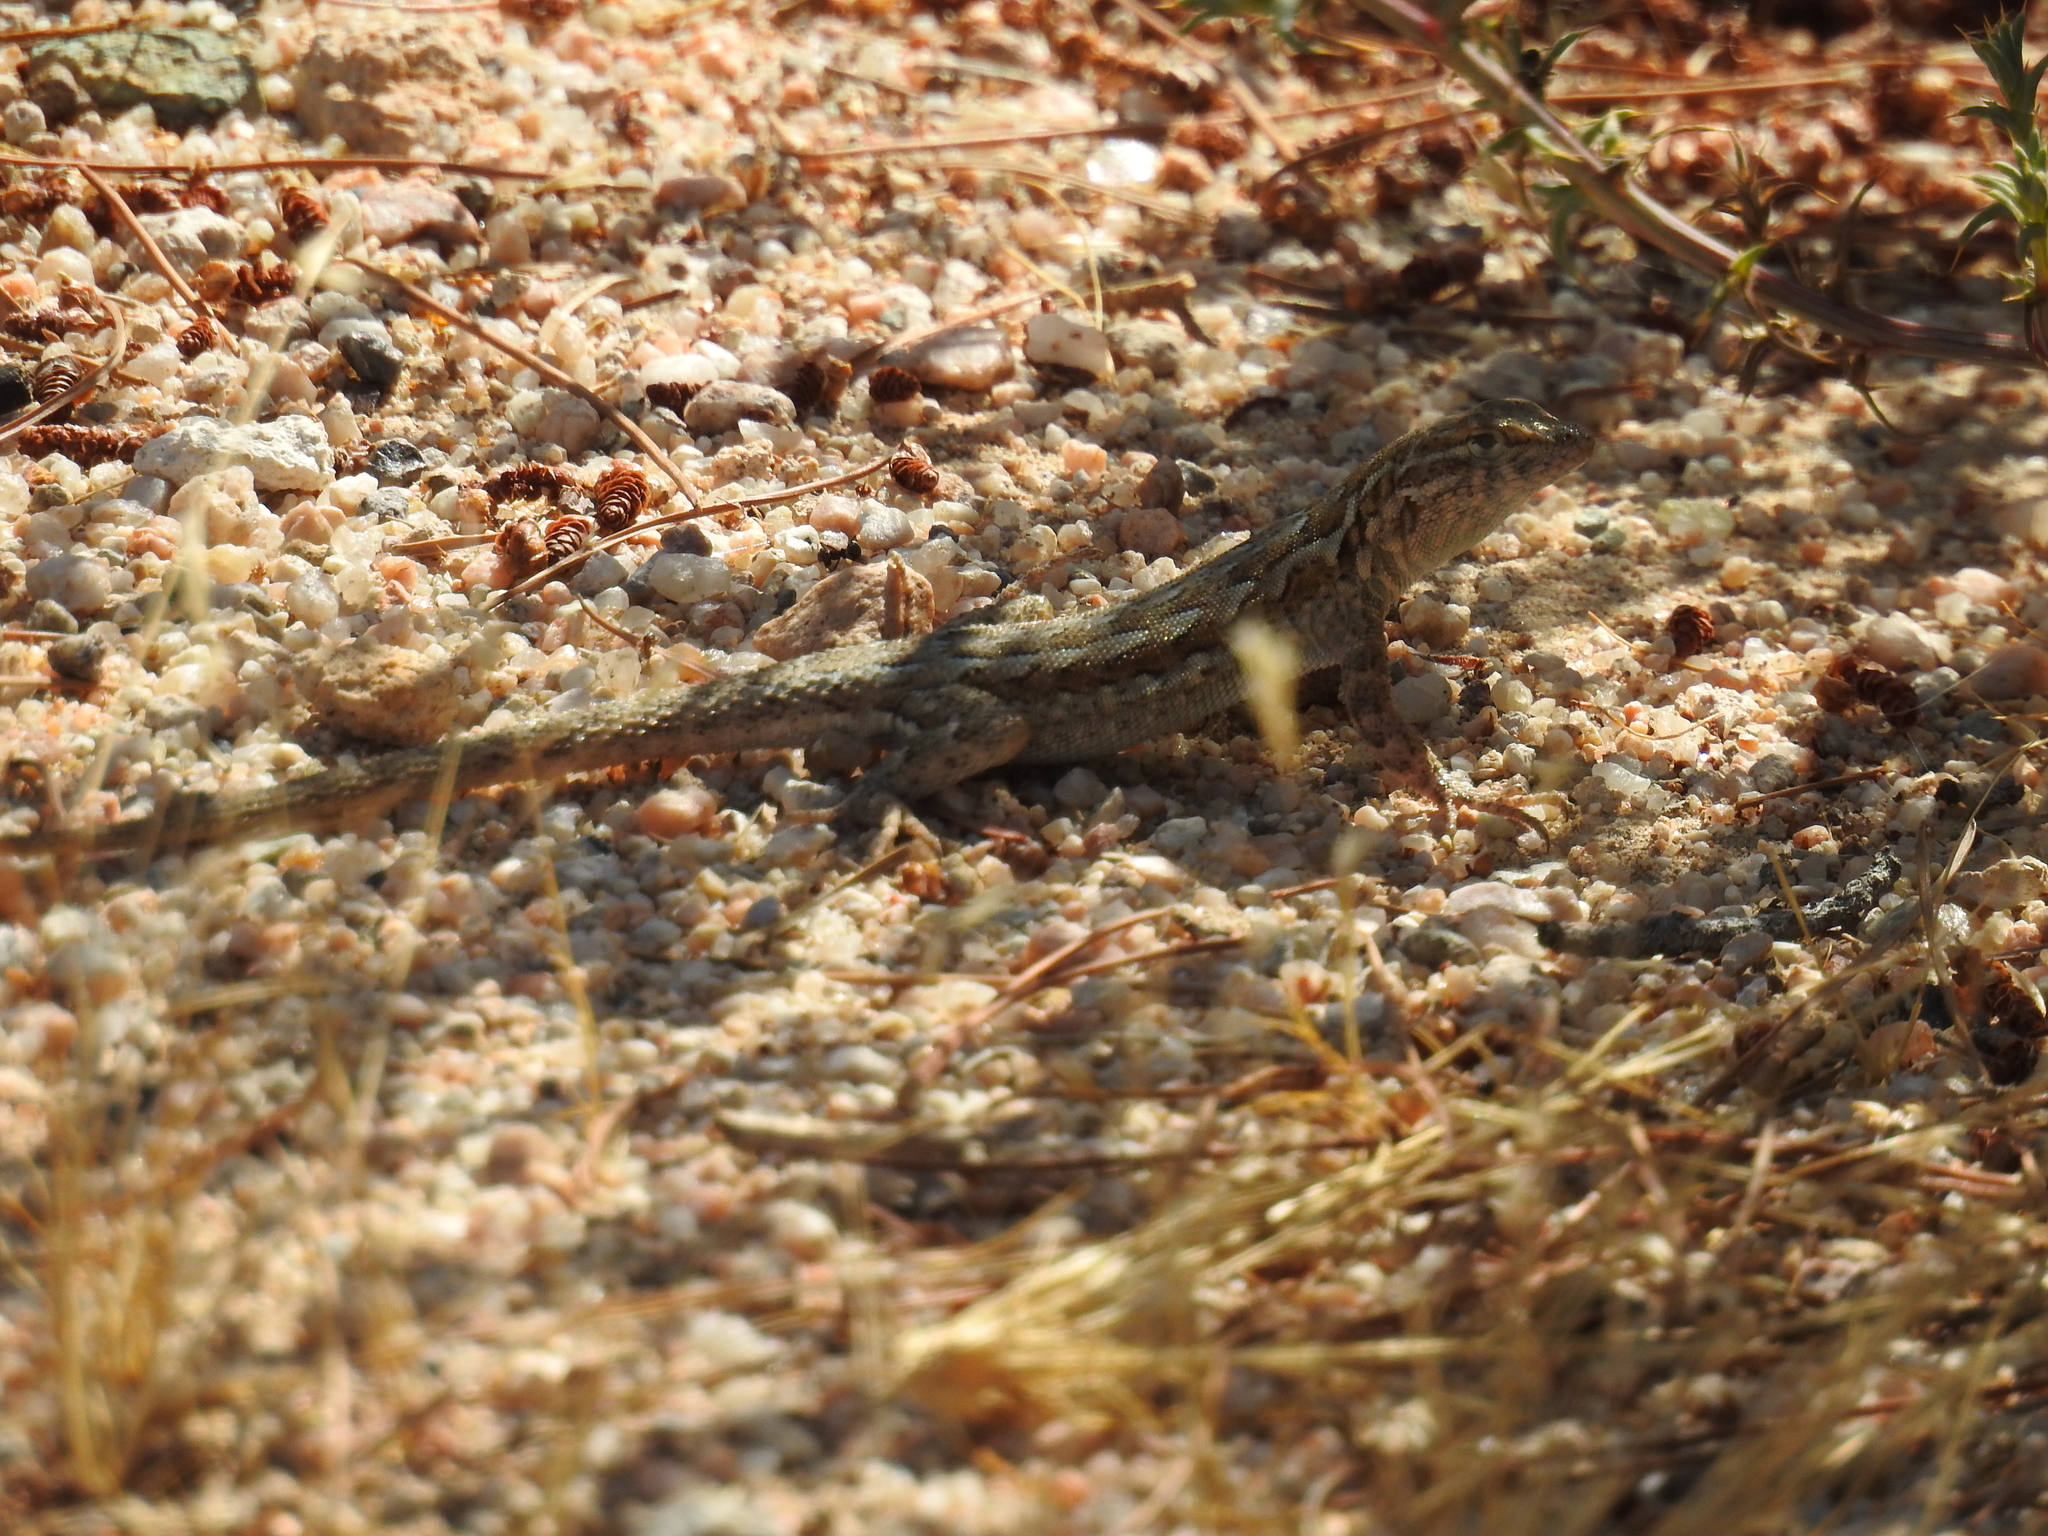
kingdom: Animalia
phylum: Chordata
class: Squamata
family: Phrynosomatidae
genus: Uta
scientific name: Uta stansburiana
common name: Side-blotched lizard
